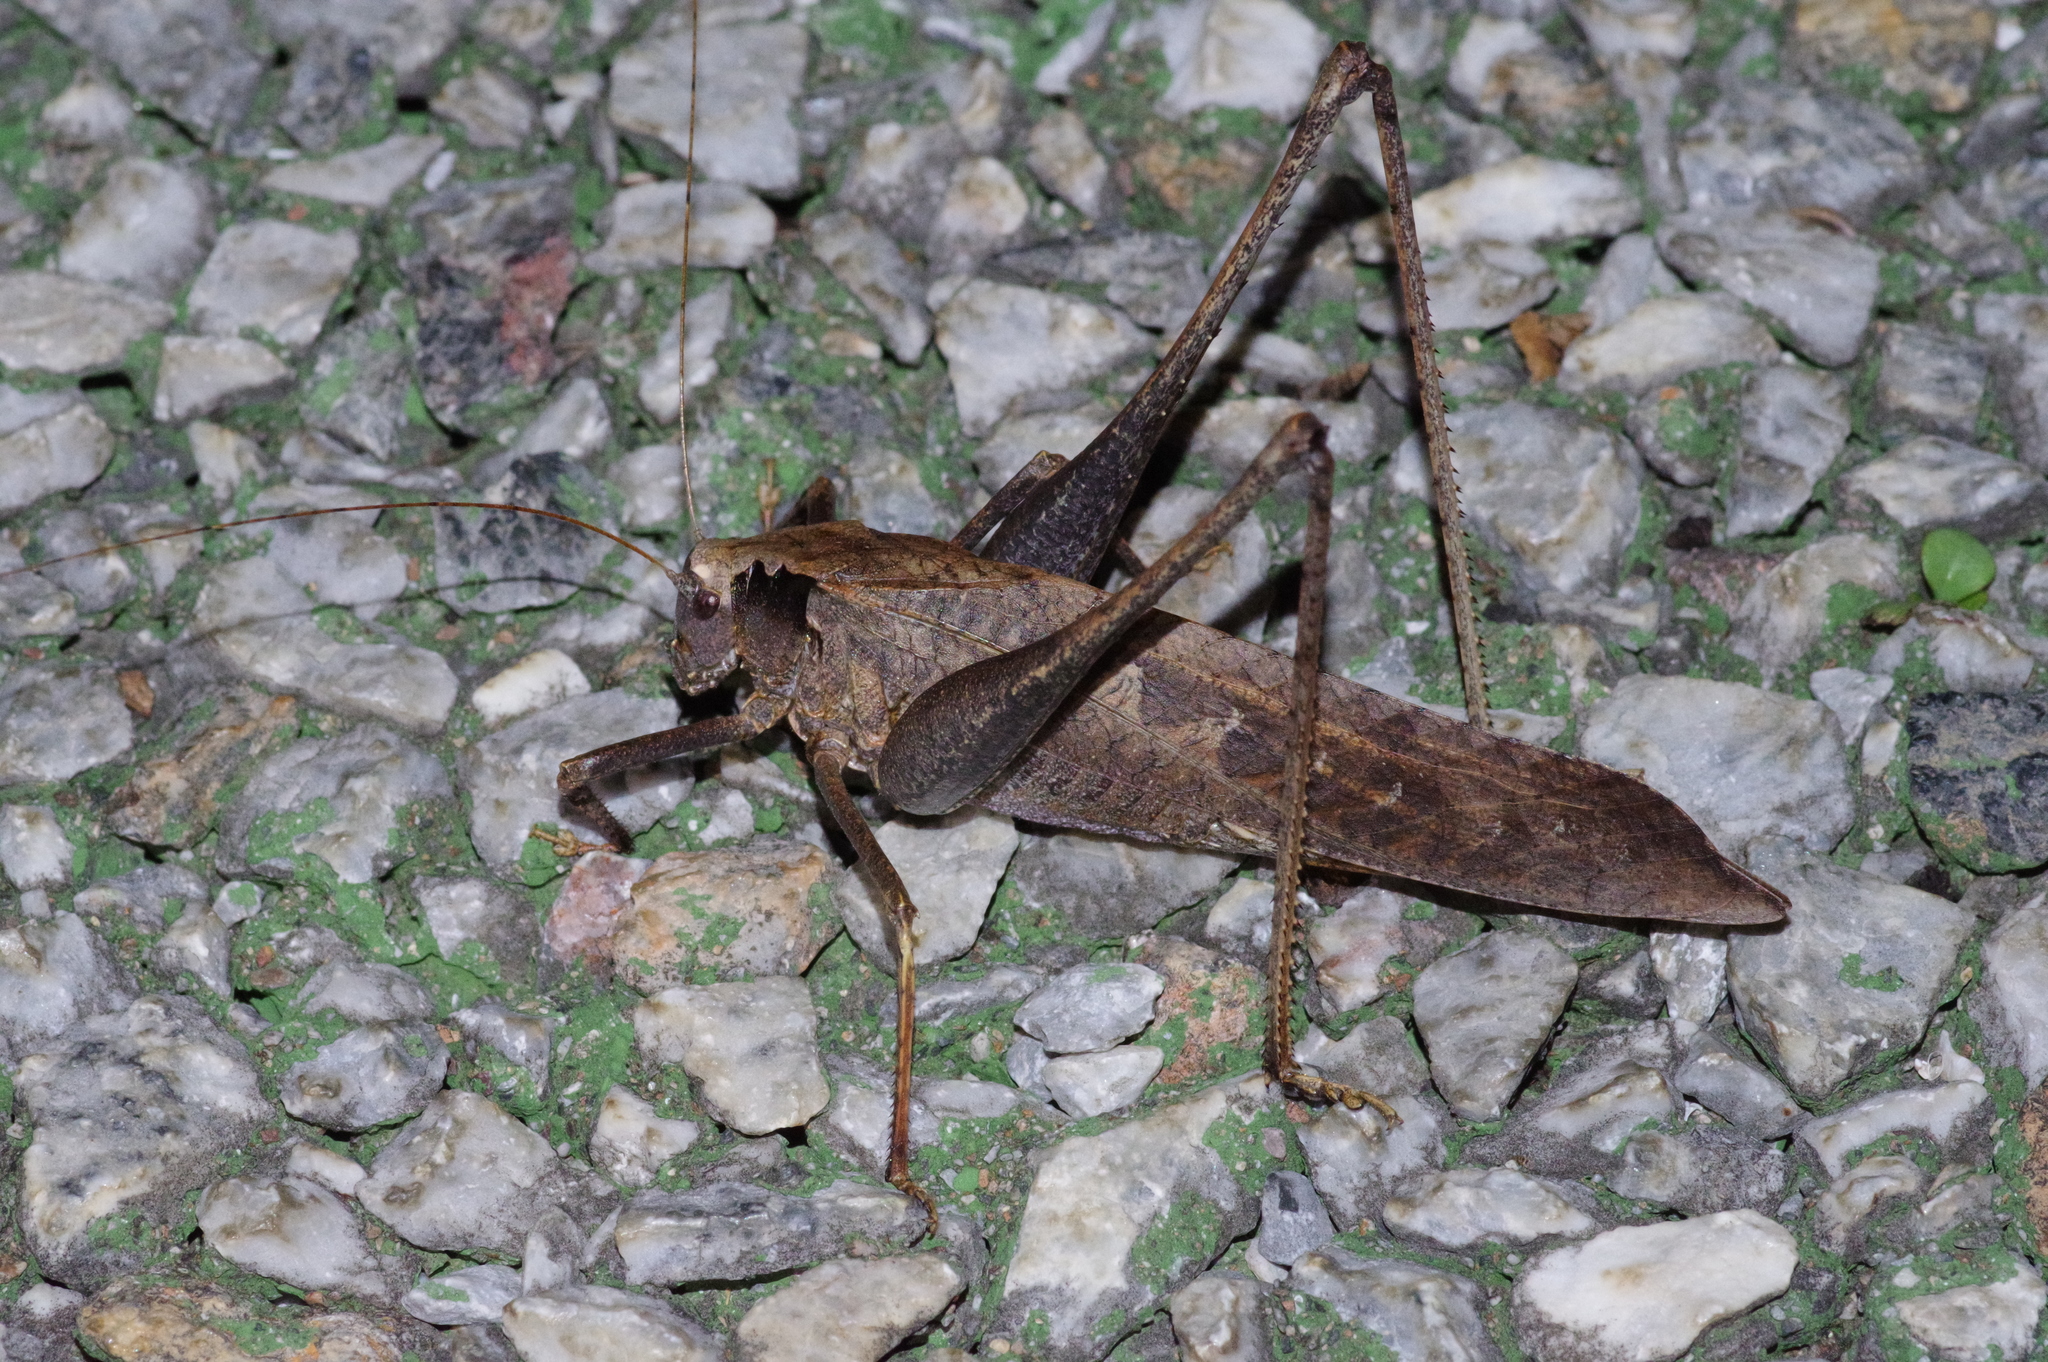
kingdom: Animalia
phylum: Arthropoda
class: Insecta
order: Orthoptera
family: Tettigoniidae
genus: Mecopoda
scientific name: Mecopoda elongata
